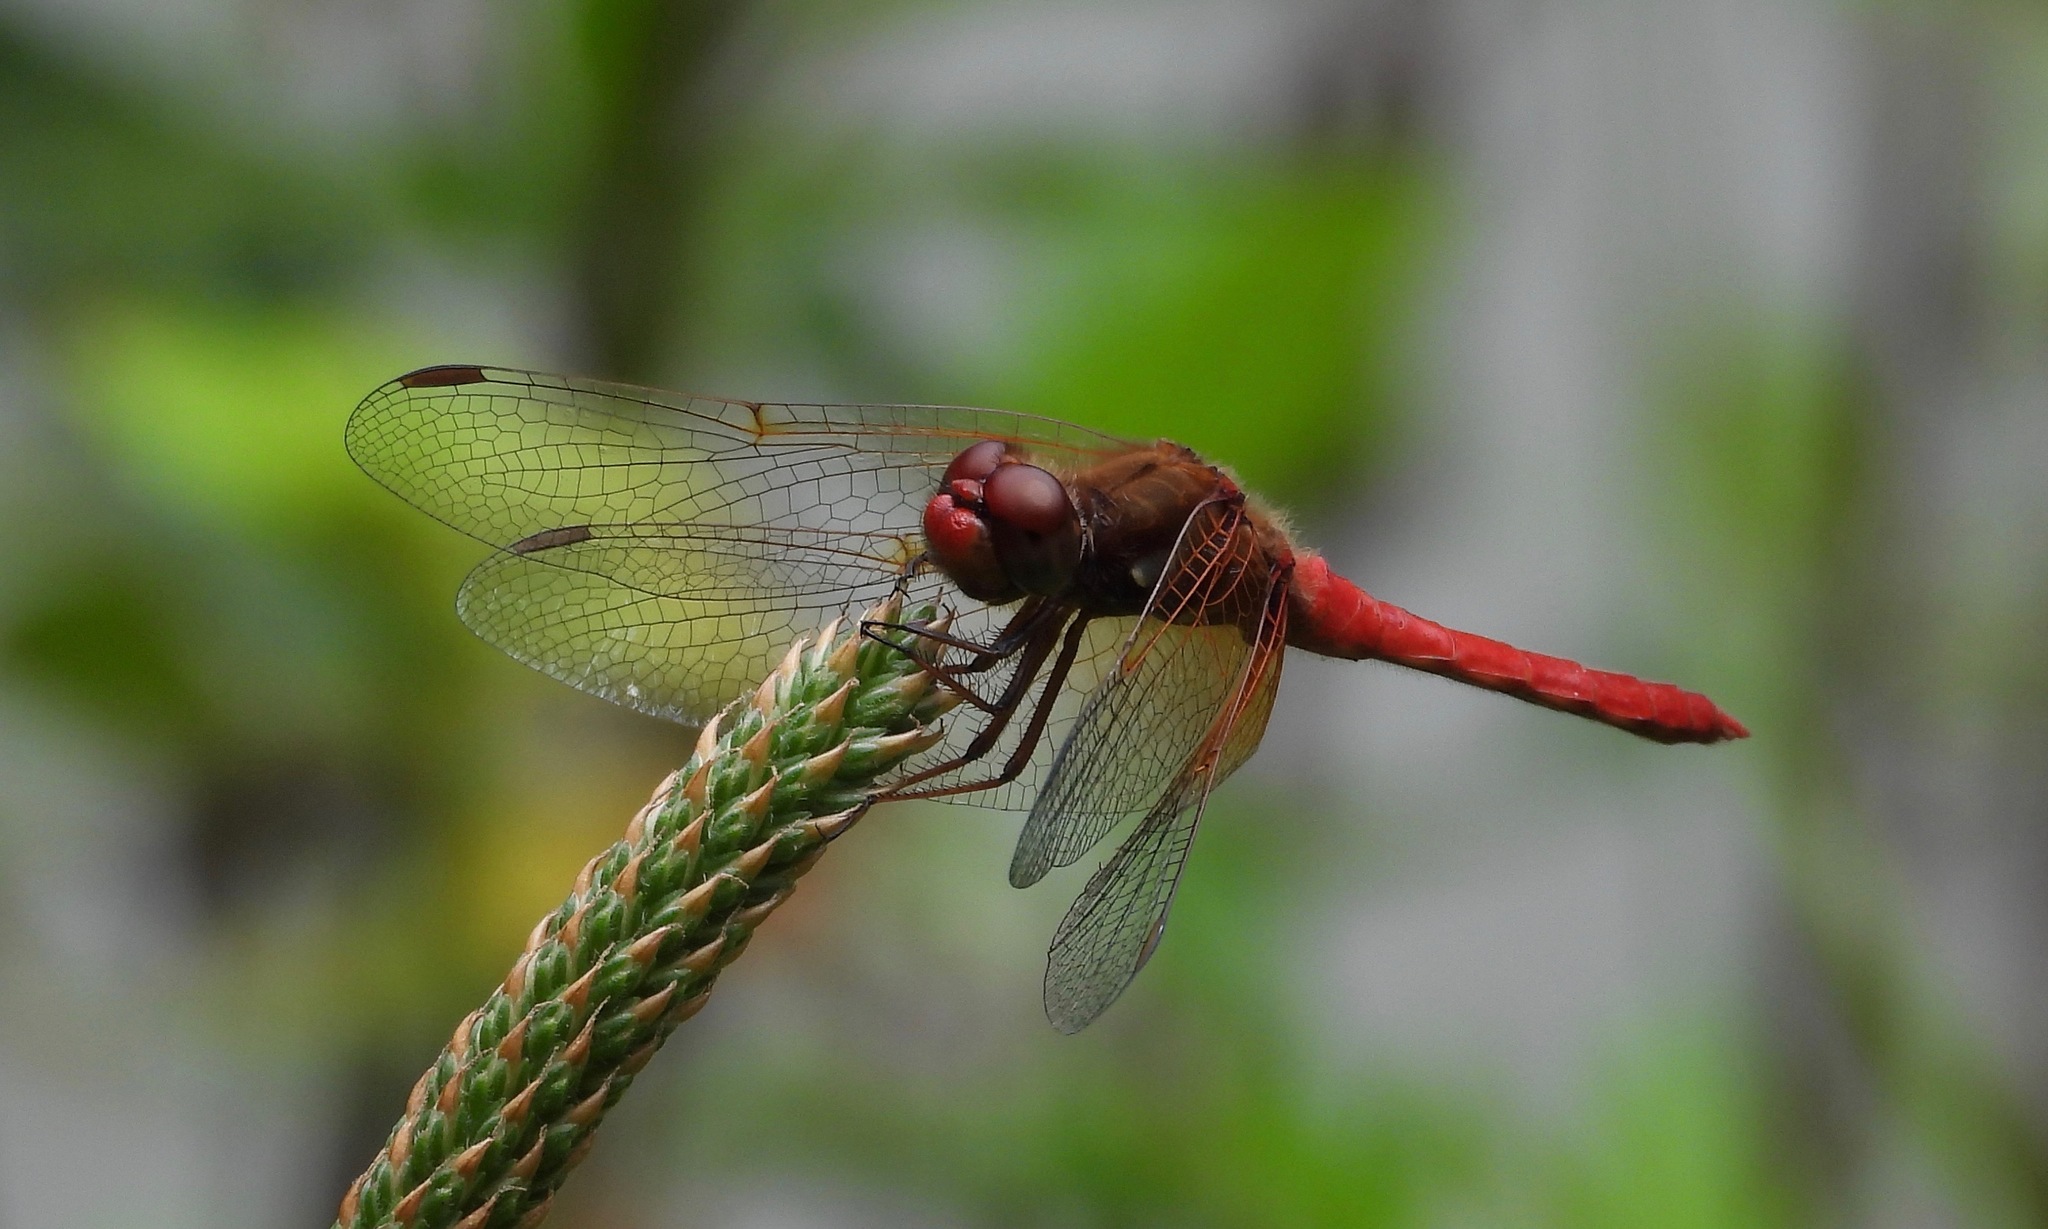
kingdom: Animalia
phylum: Arthropoda
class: Insecta
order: Odonata
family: Libellulidae
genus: Sympetrum
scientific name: Sympetrum illotum
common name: Cardinal meadowhawk
